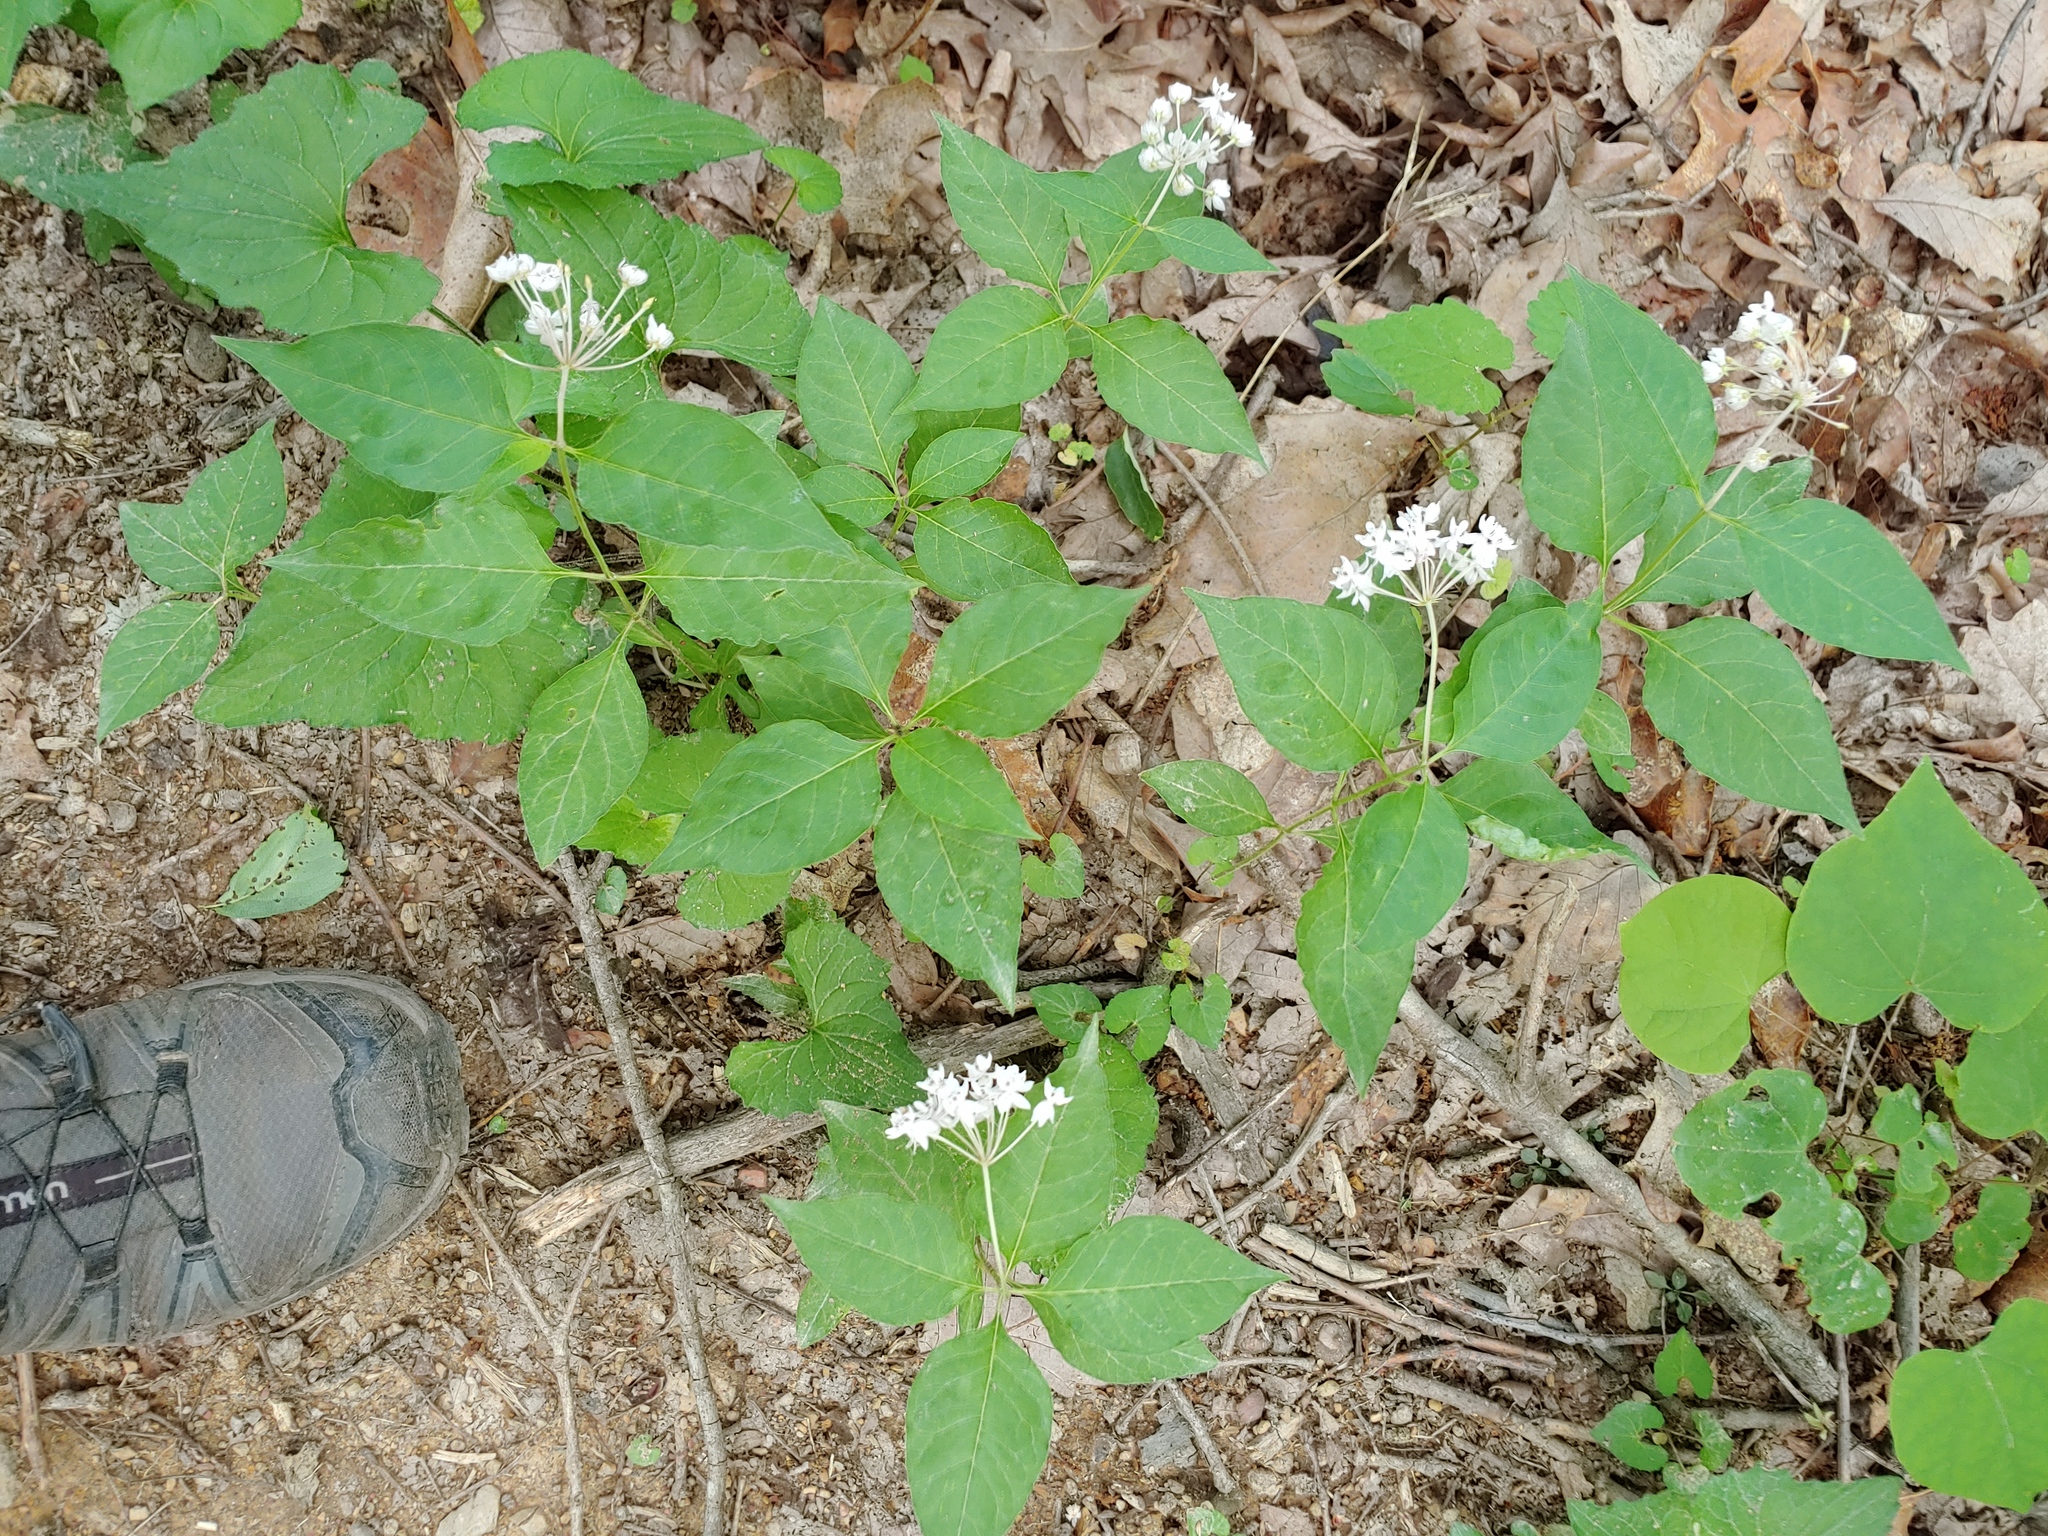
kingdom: Plantae
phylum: Tracheophyta
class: Magnoliopsida
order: Gentianales
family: Apocynaceae
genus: Asclepias
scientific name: Asclepias quadrifolia
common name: Whorled milkweed
